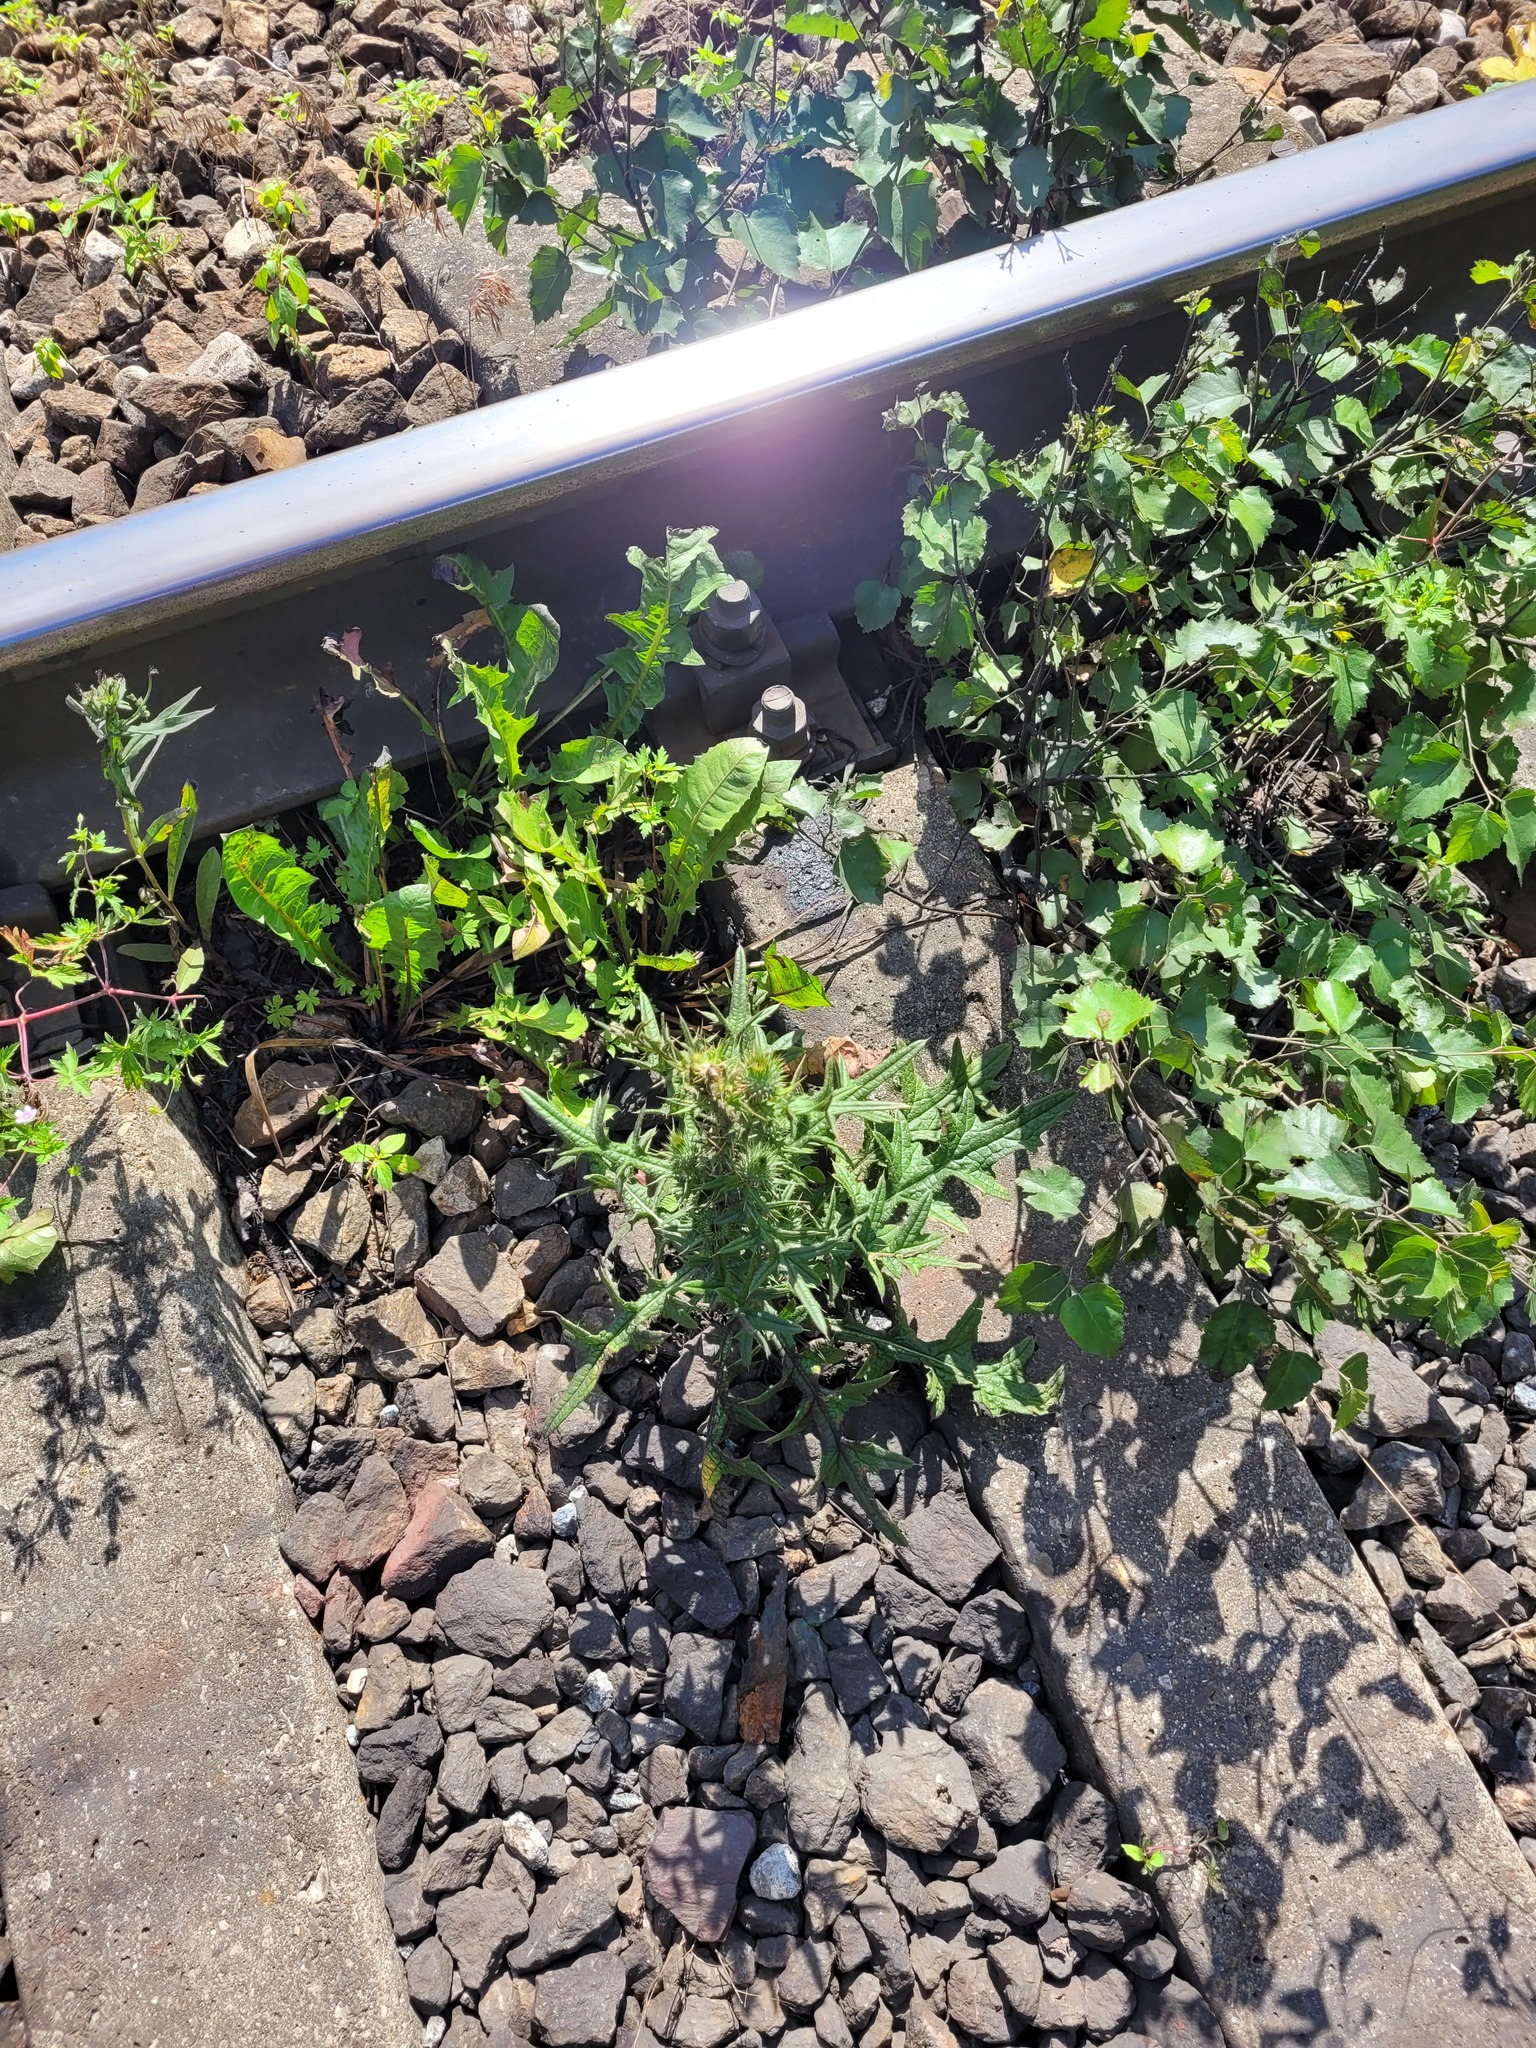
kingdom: Plantae
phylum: Tracheophyta
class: Magnoliopsida
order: Asterales
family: Asteraceae
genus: Cirsium
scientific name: Cirsium vulgare
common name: Bull thistle
